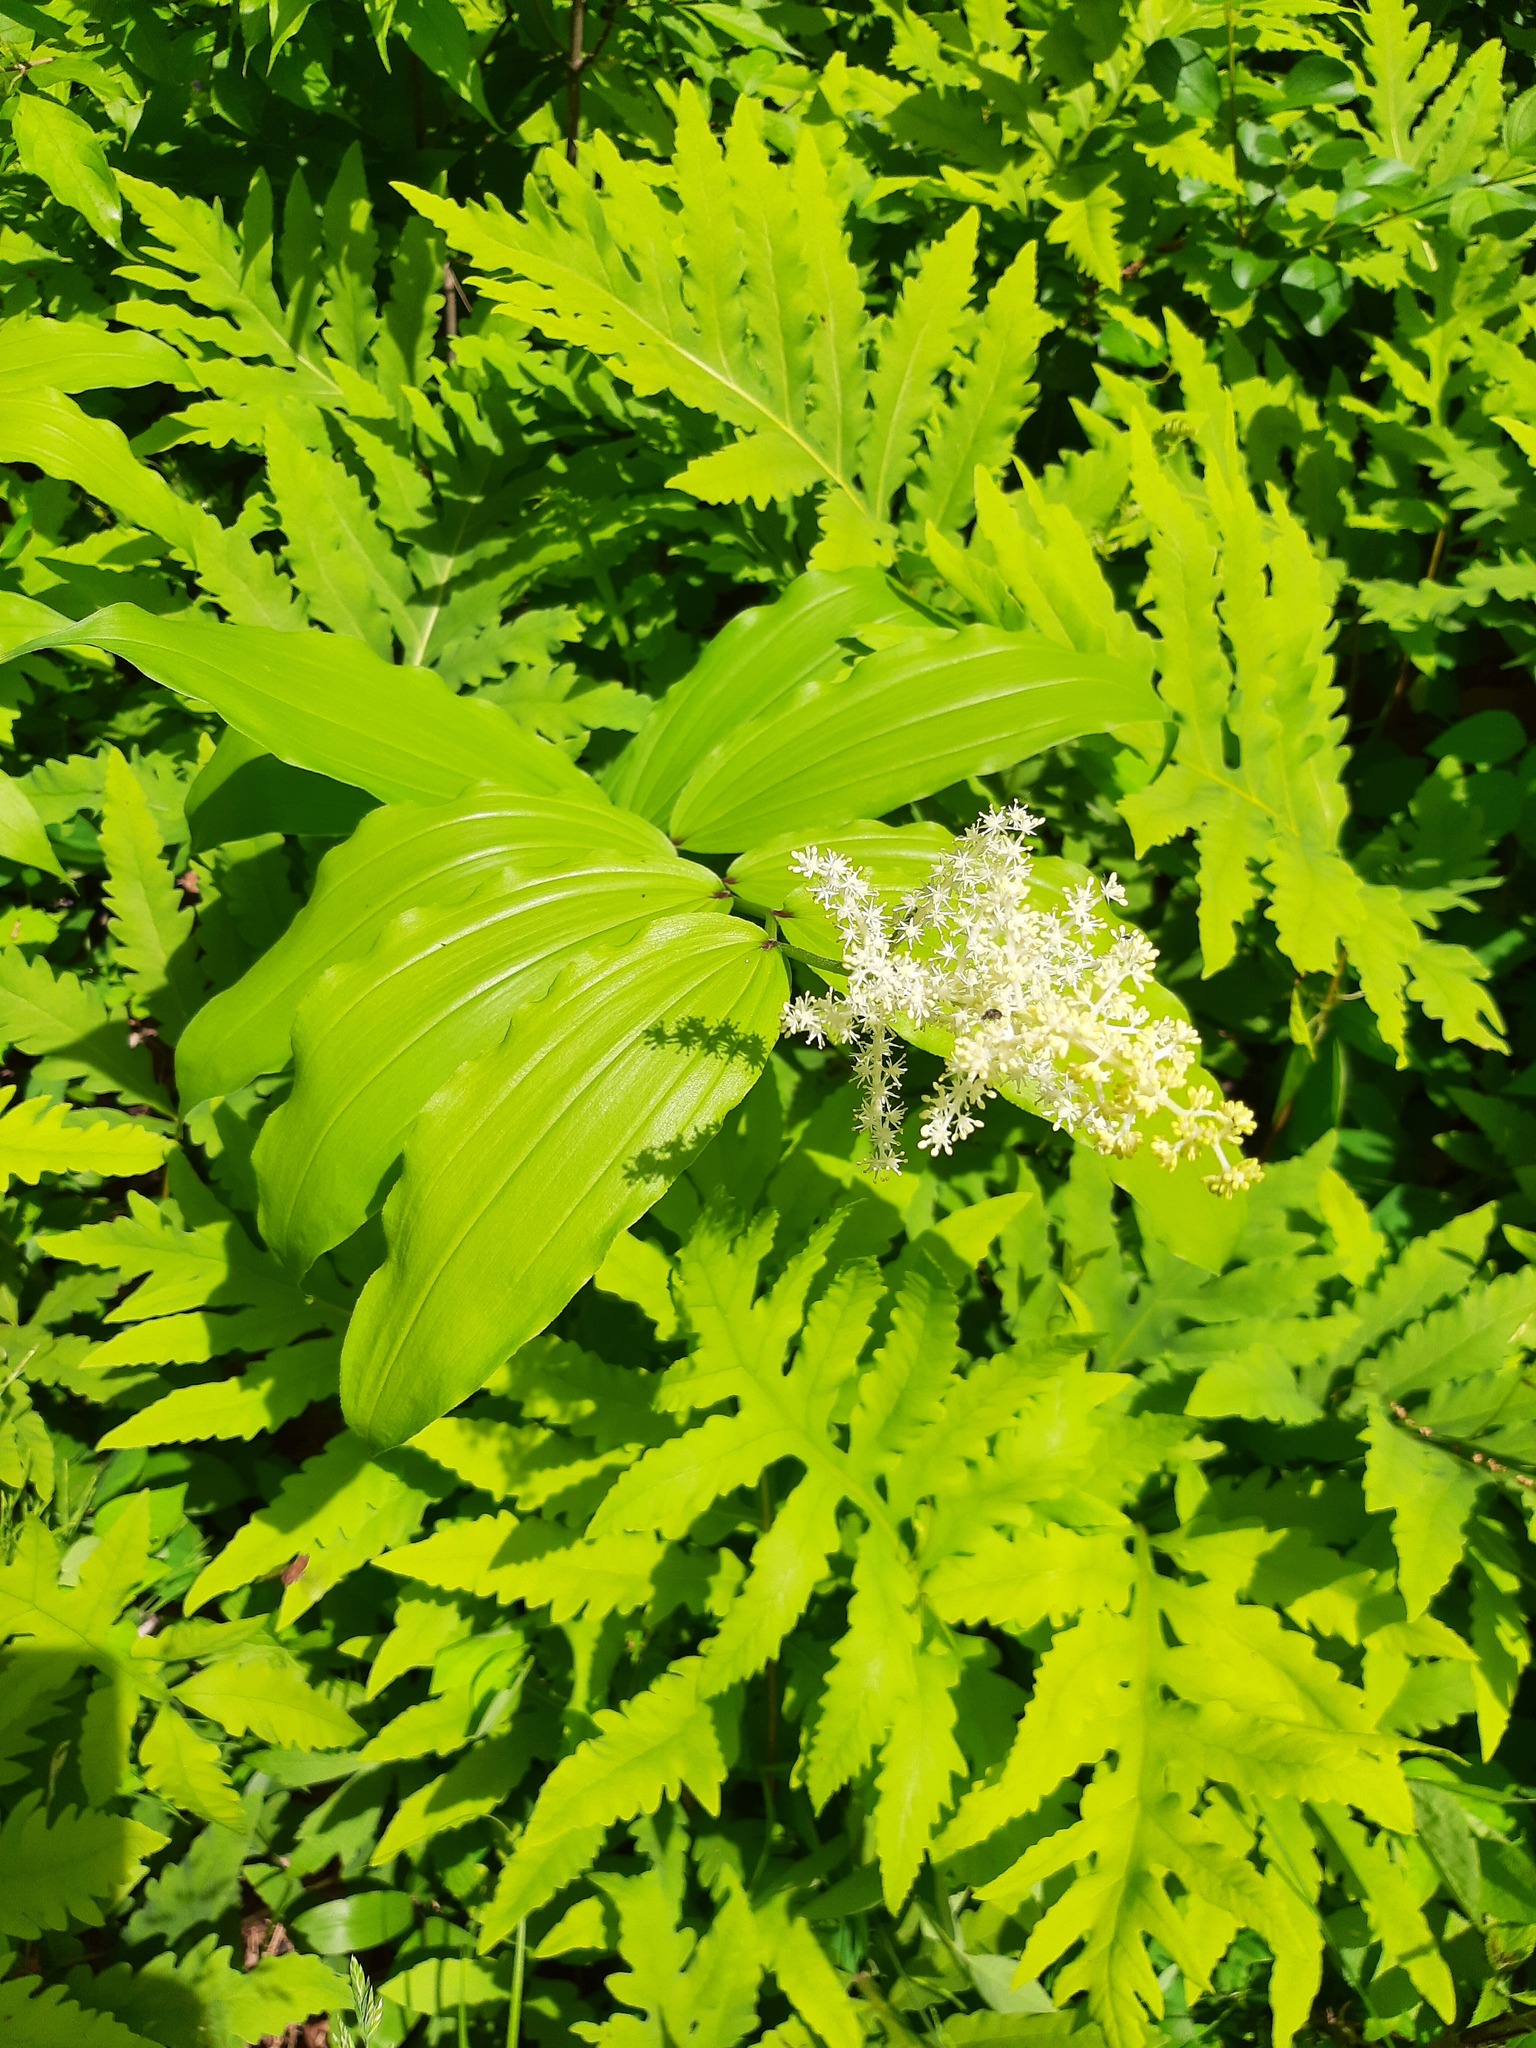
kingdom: Plantae
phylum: Tracheophyta
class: Liliopsida
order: Asparagales
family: Asparagaceae
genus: Maianthemum
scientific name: Maianthemum racemosum
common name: False spikenard
